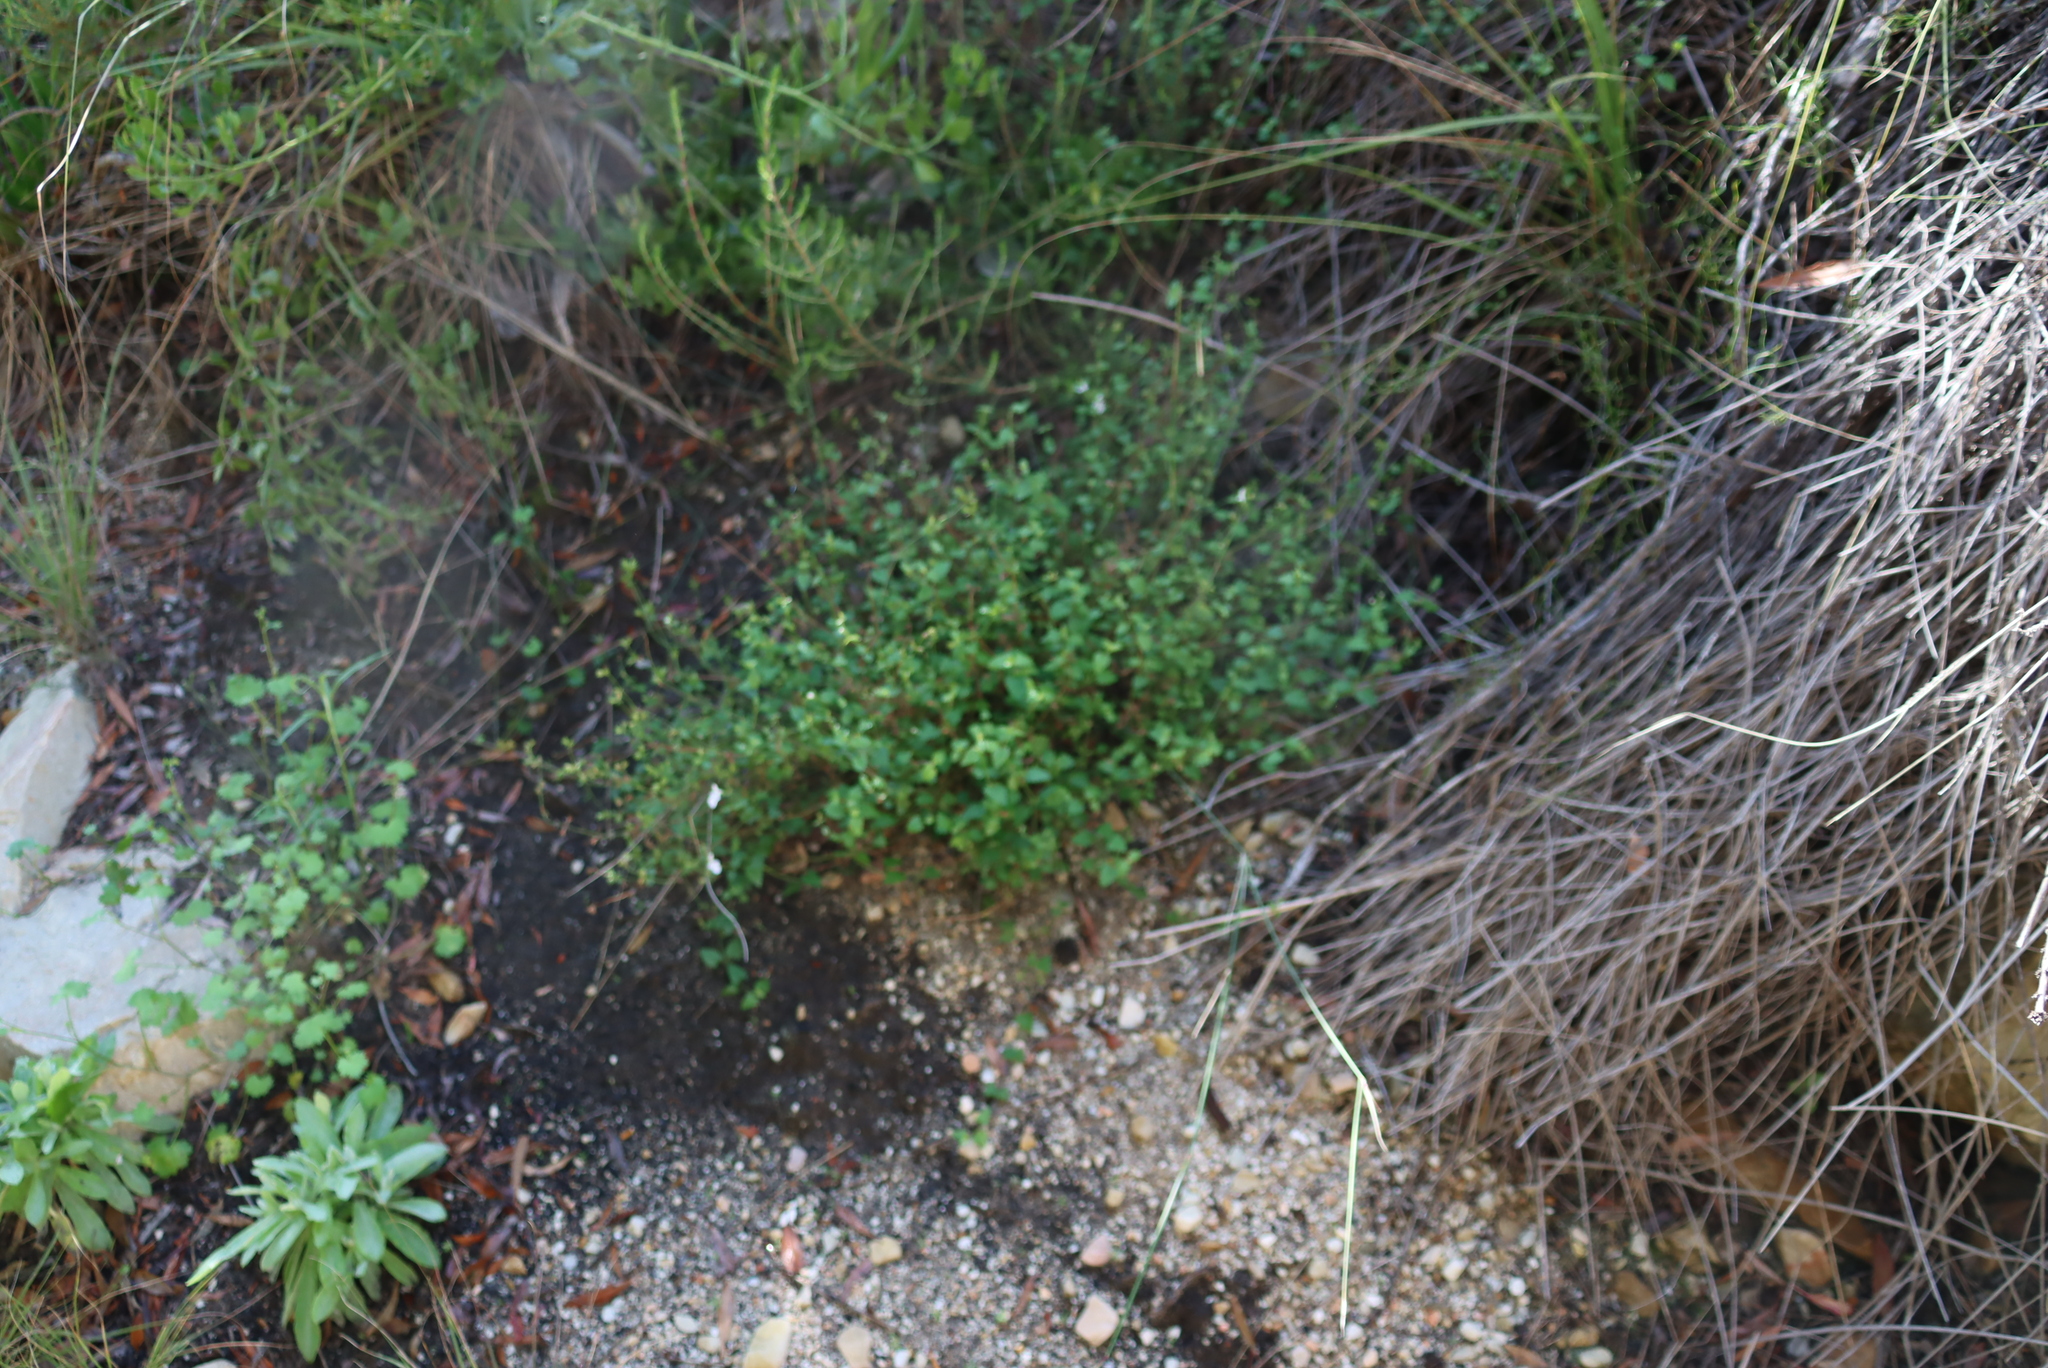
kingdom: Plantae
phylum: Tracheophyta
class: Magnoliopsida
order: Lamiales
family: Lamiaceae
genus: Stachys
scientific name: Stachys aethiopica
